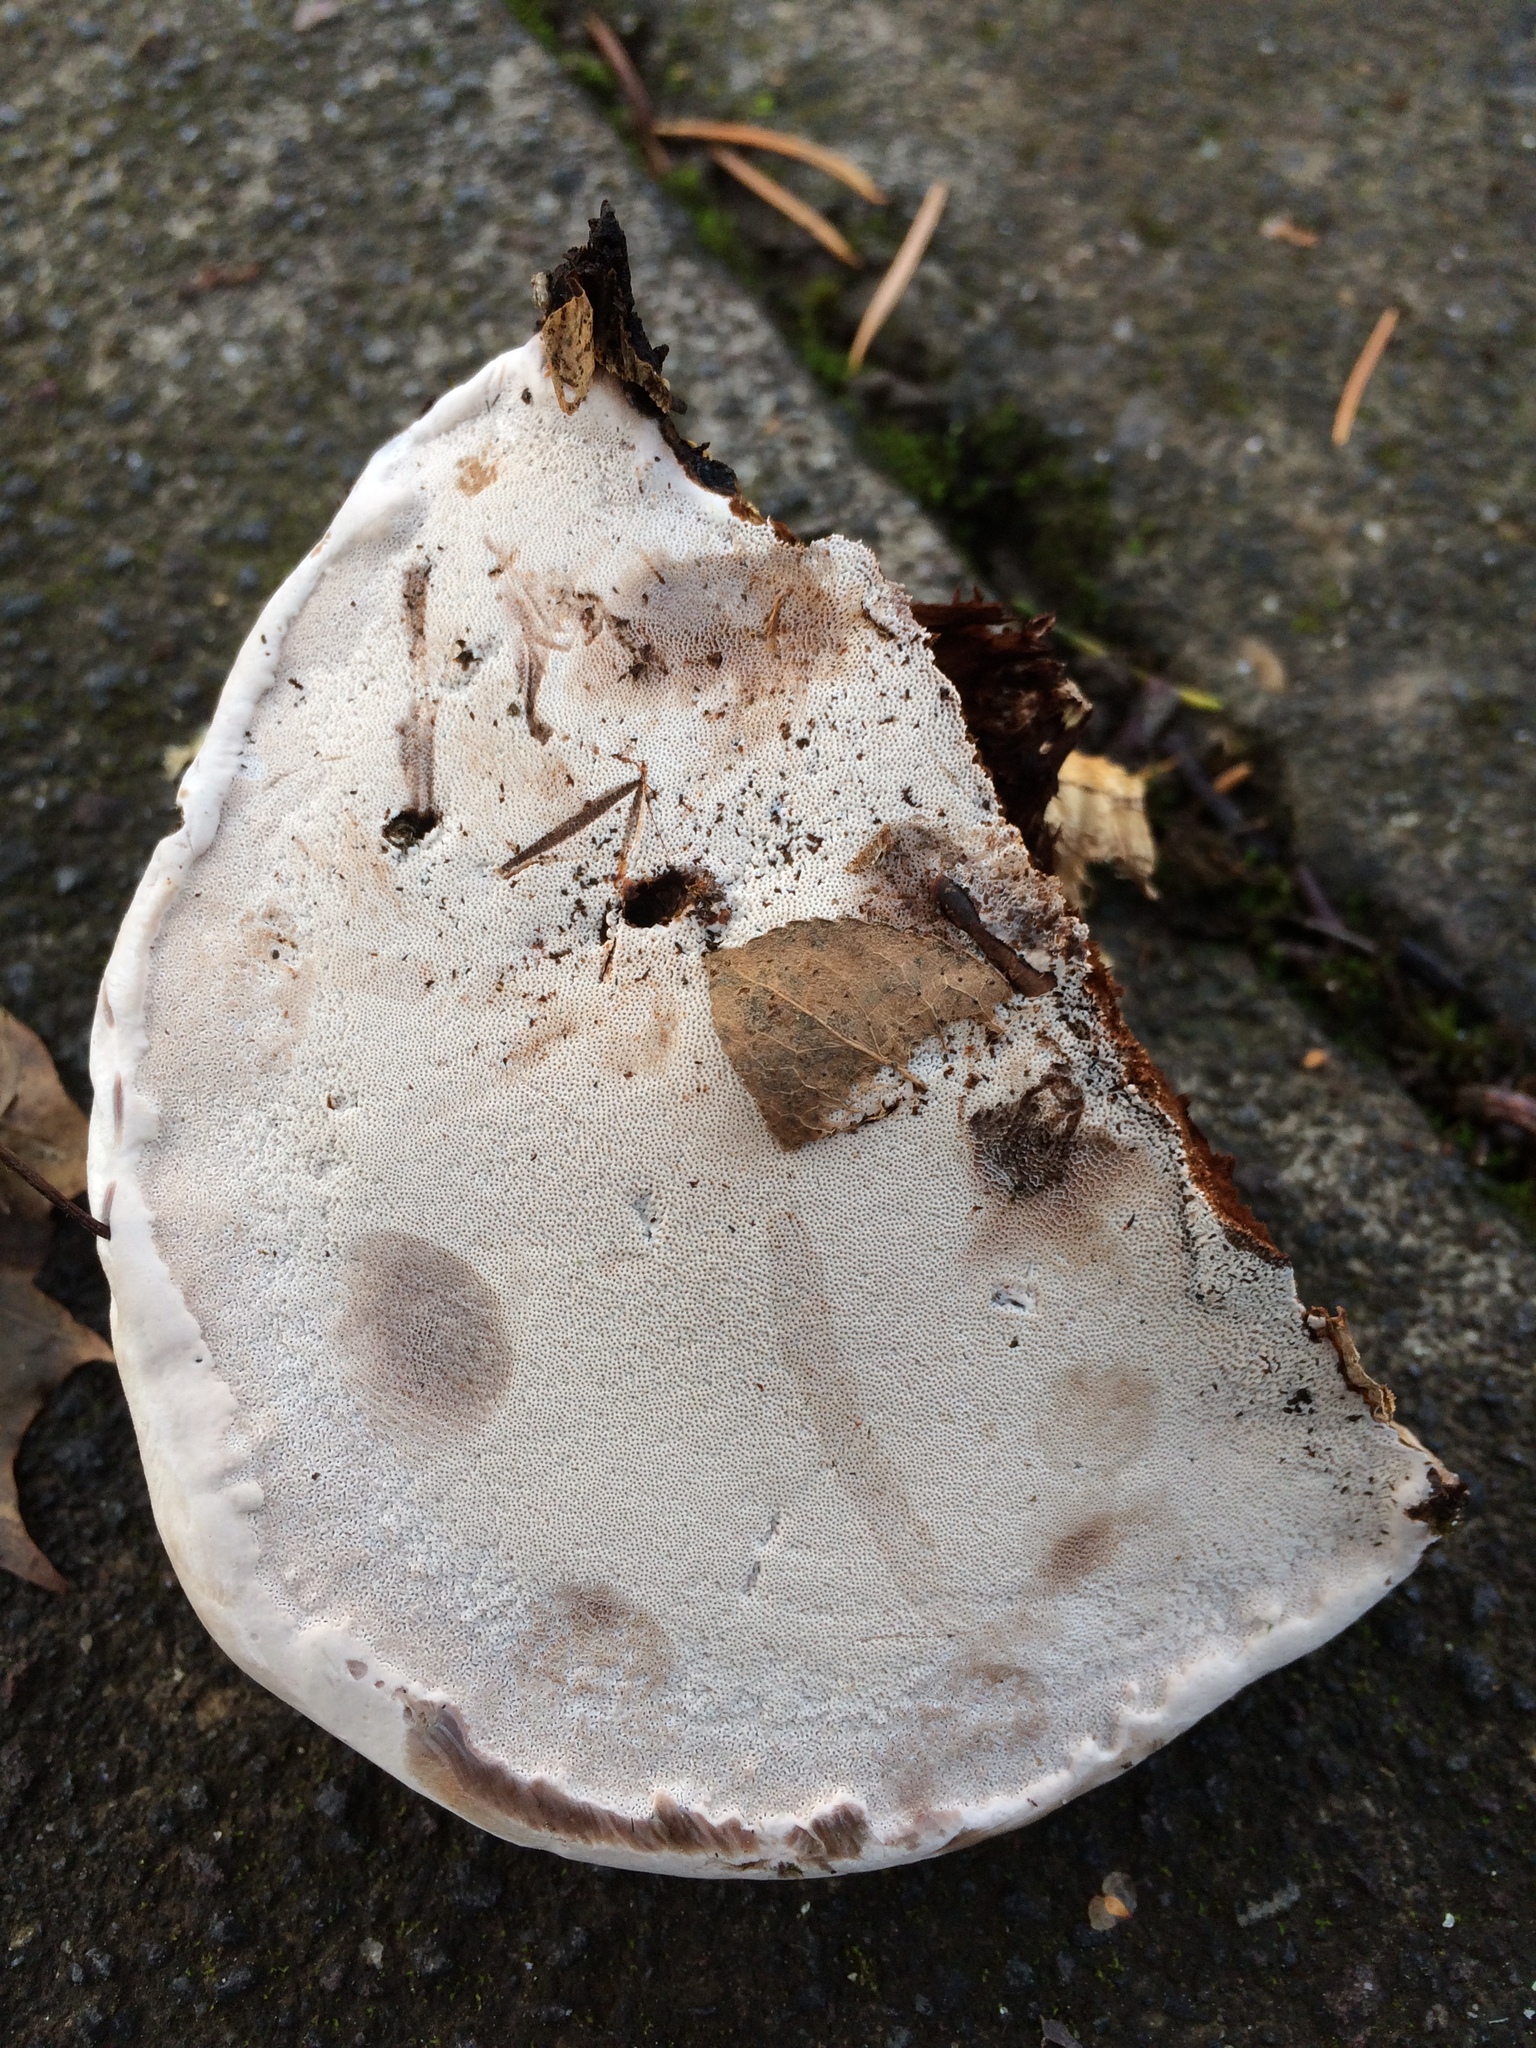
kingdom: Fungi
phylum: Basidiomycota
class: Agaricomycetes
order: Polyporales
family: Polyporaceae
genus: Ganoderma
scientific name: Ganoderma applanatum
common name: Artist's bracket
